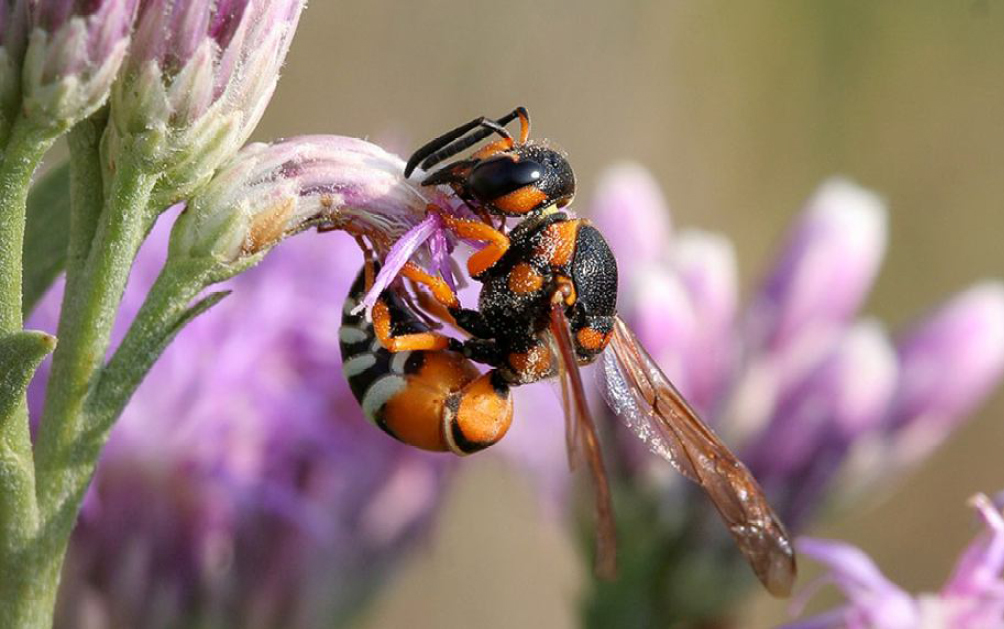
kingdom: Animalia
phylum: Arthropoda
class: Insecta
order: Hymenoptera
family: Eumenidae
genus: Onychopterocheilus
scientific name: Onychopterocheilus pallasii
